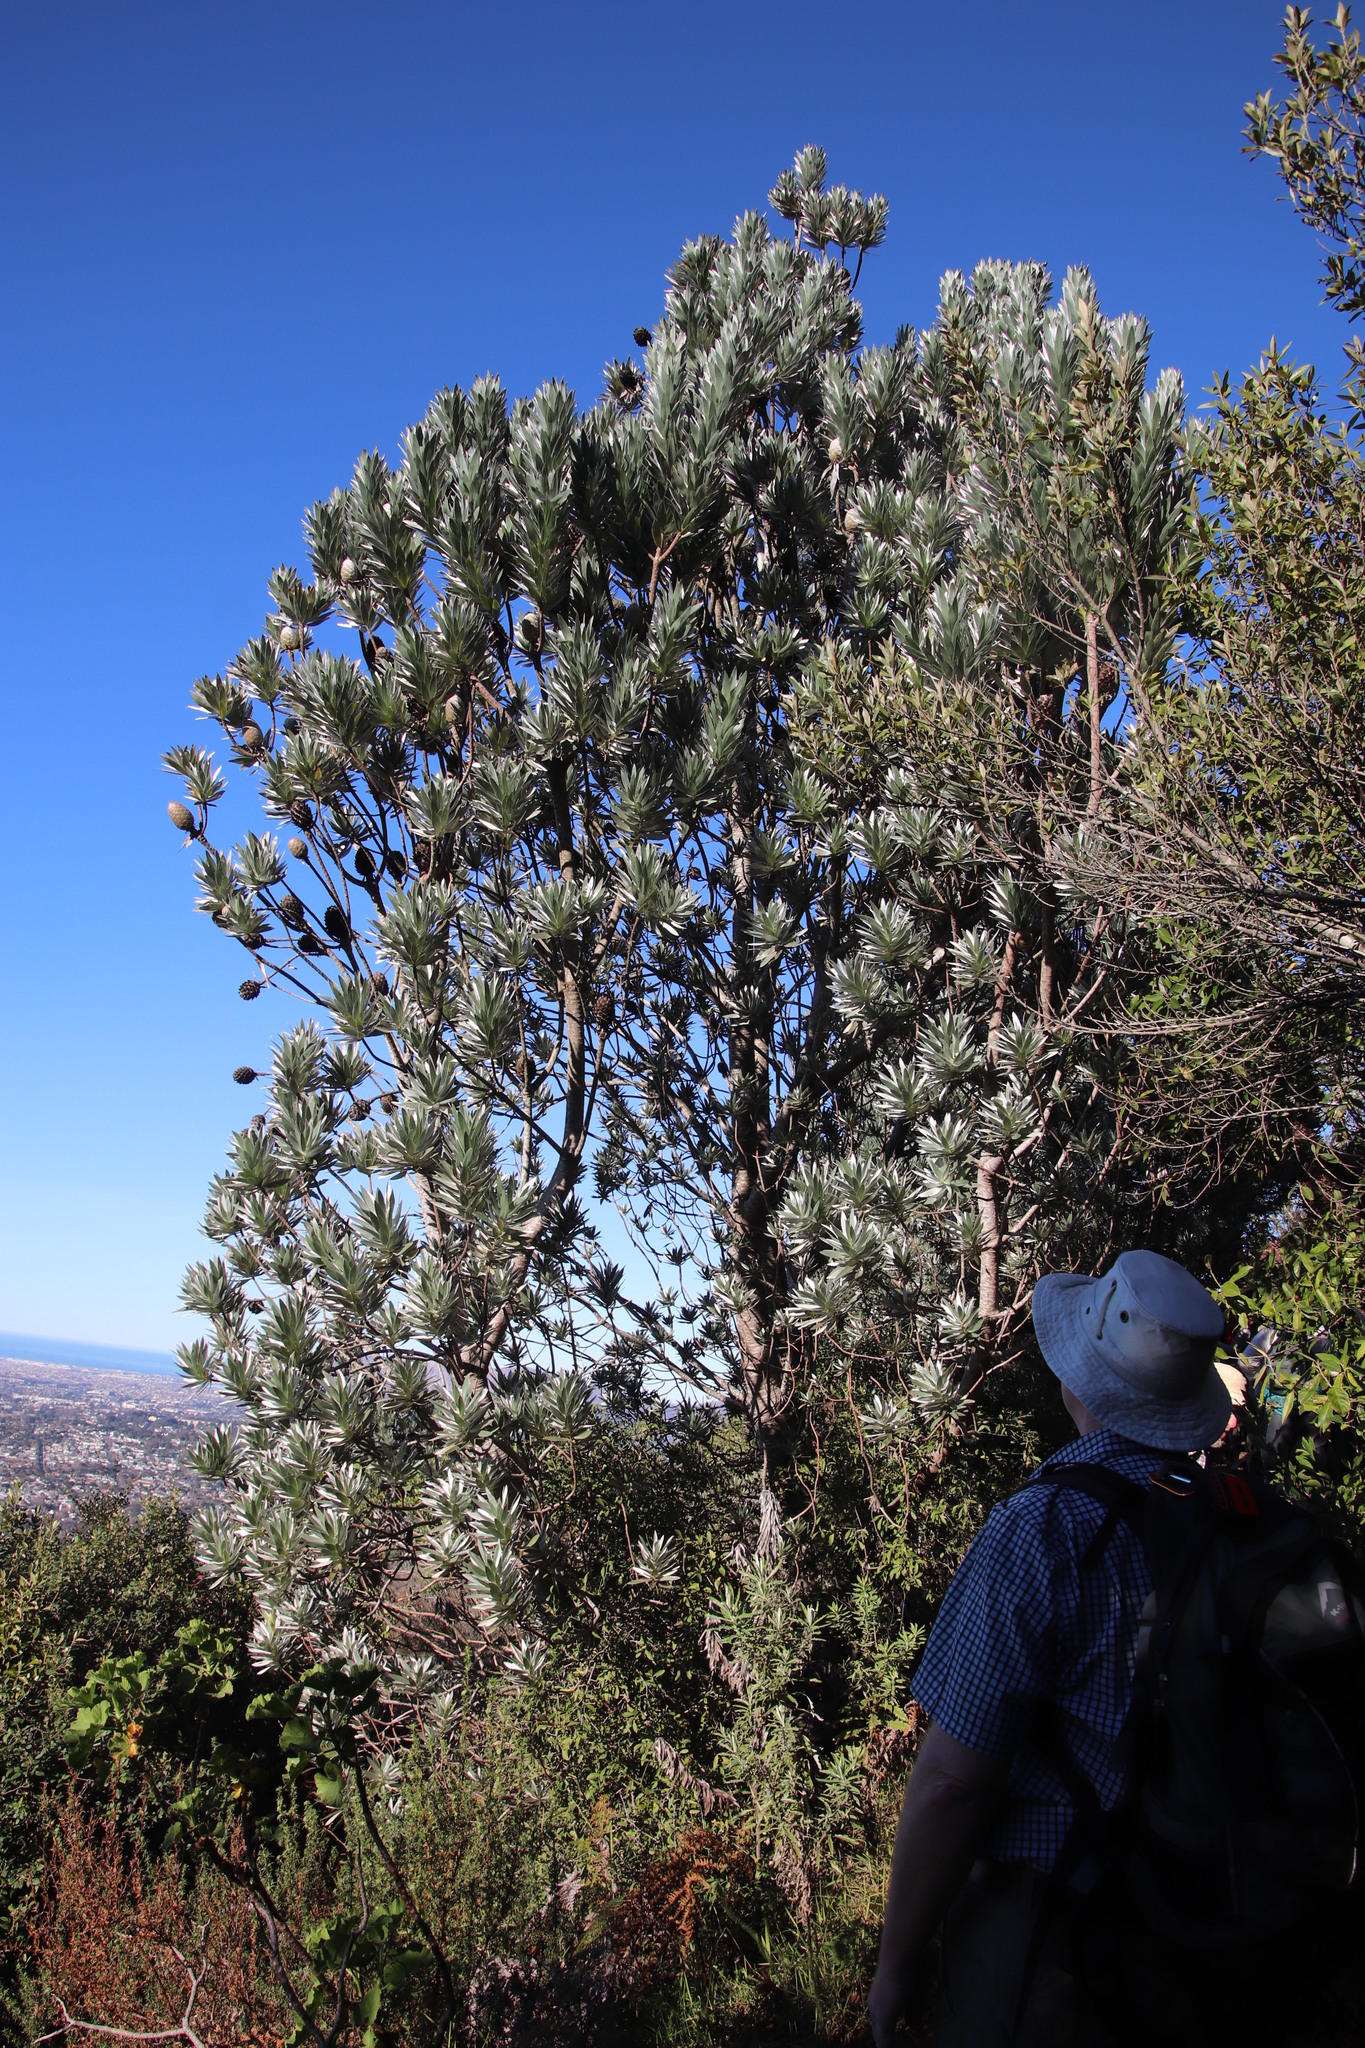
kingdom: Plantae
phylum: Tracheophyta
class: Magnoliopsida
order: Proteales
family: Proteaceae
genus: Leucadendron
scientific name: Leucadendron argenteum
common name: Cape silver tree
